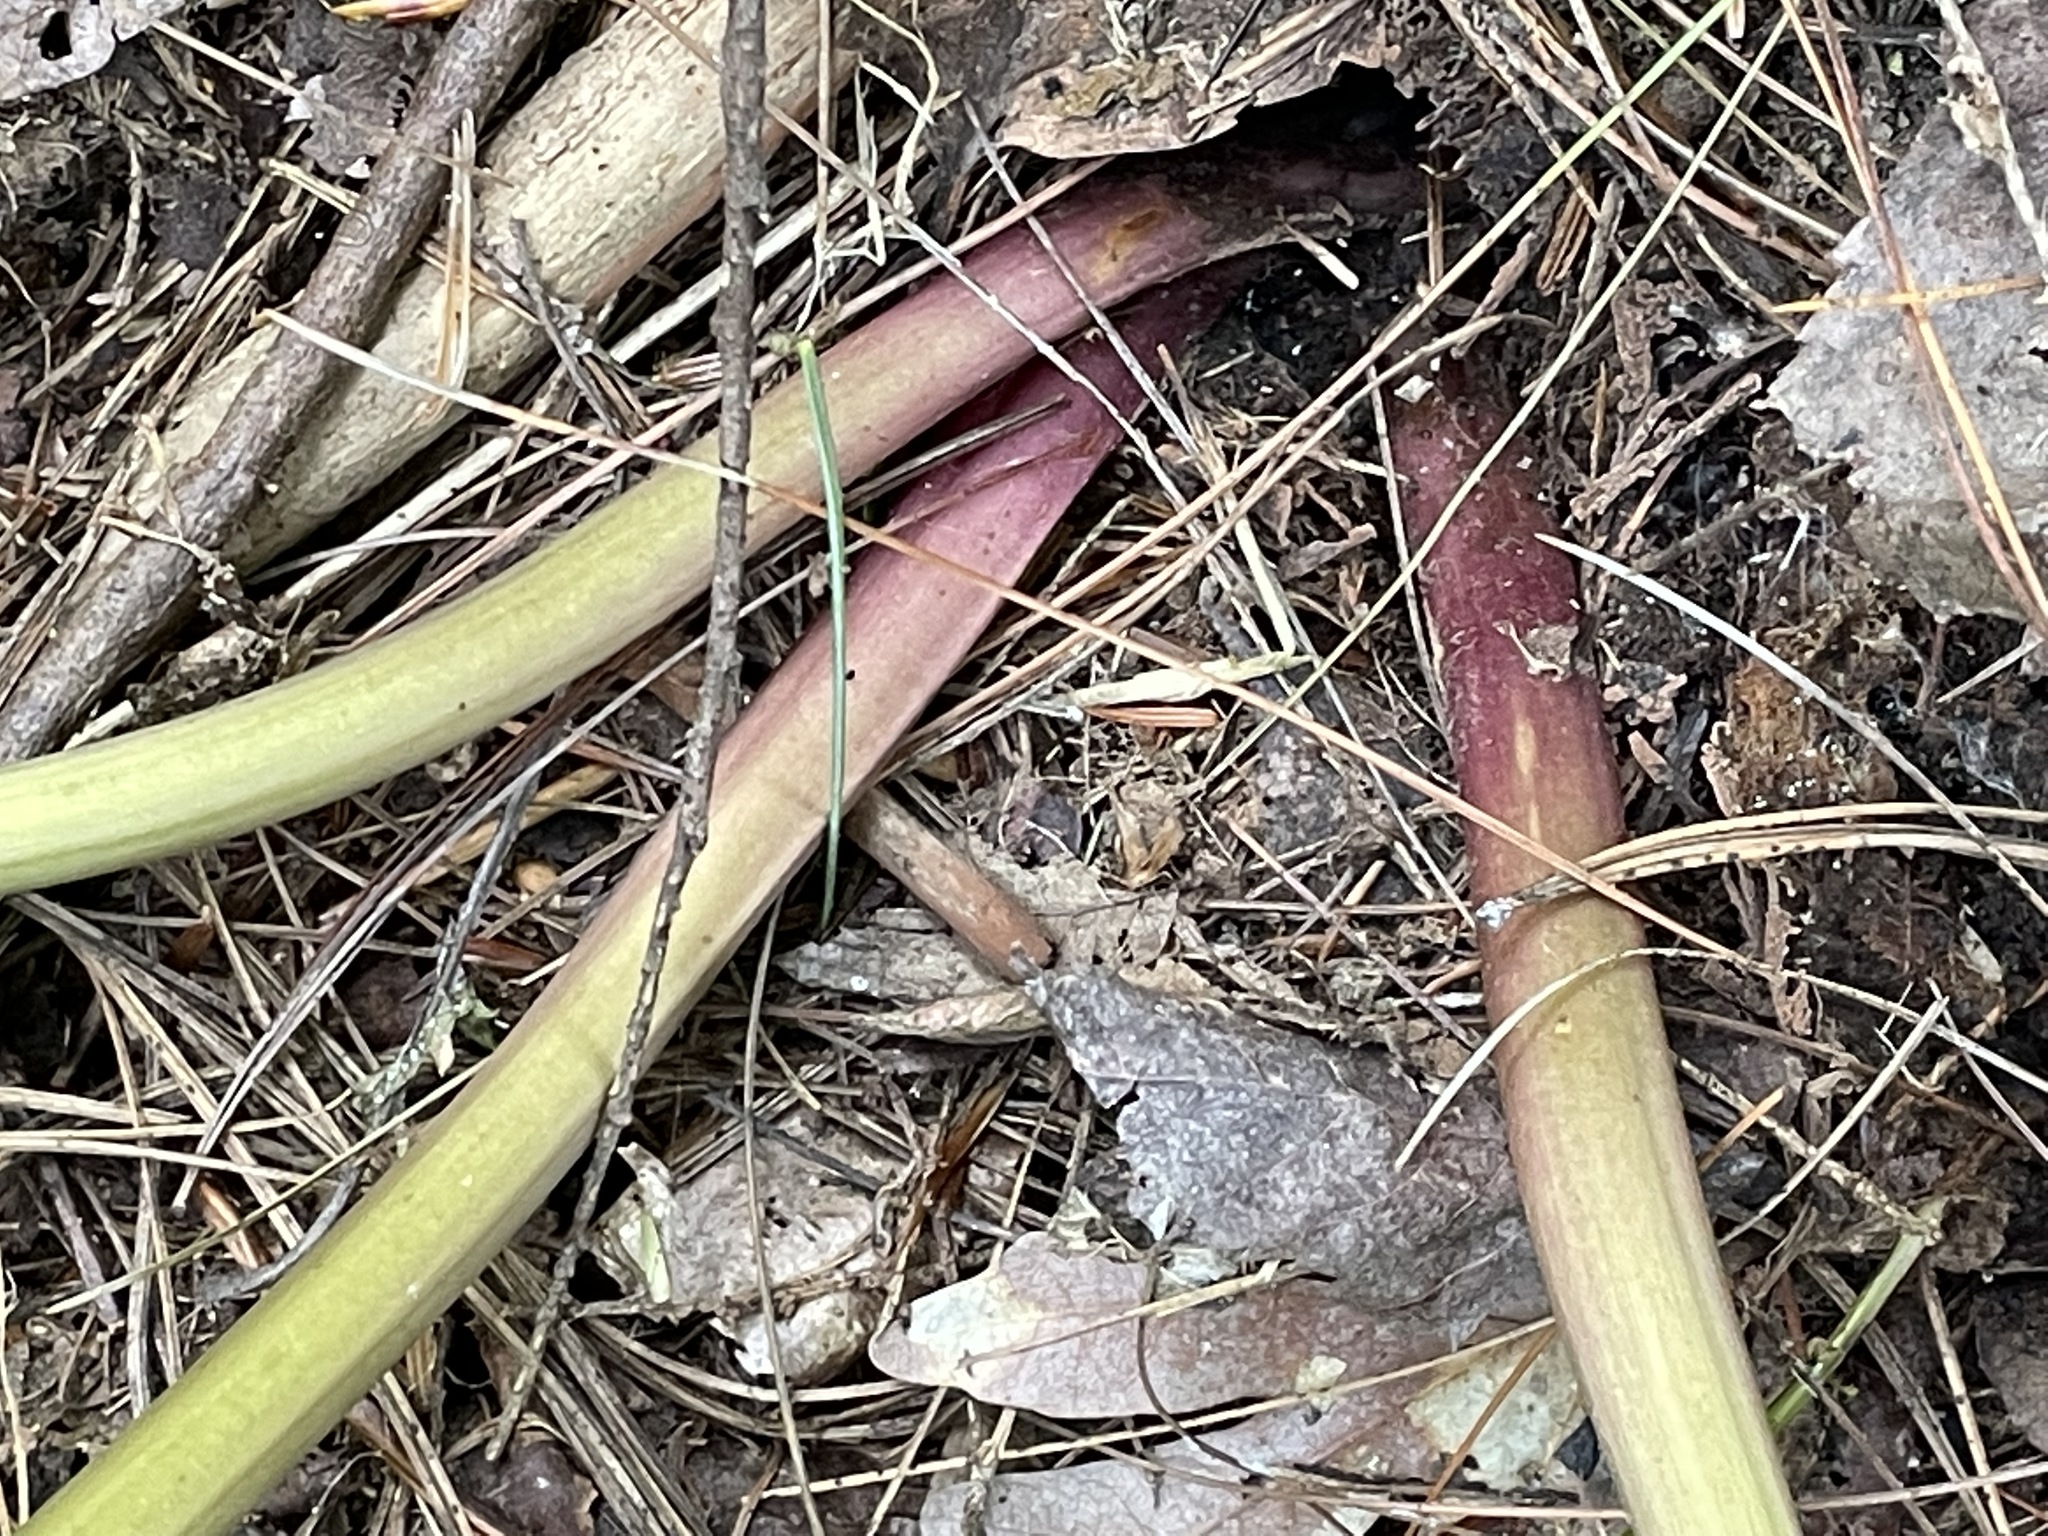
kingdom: Plantae
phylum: Tracheophyta
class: Liliopsida
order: Liliales
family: Melanthiaceae
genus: Trillium
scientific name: Trillium grandiflorum
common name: Great white trillium
